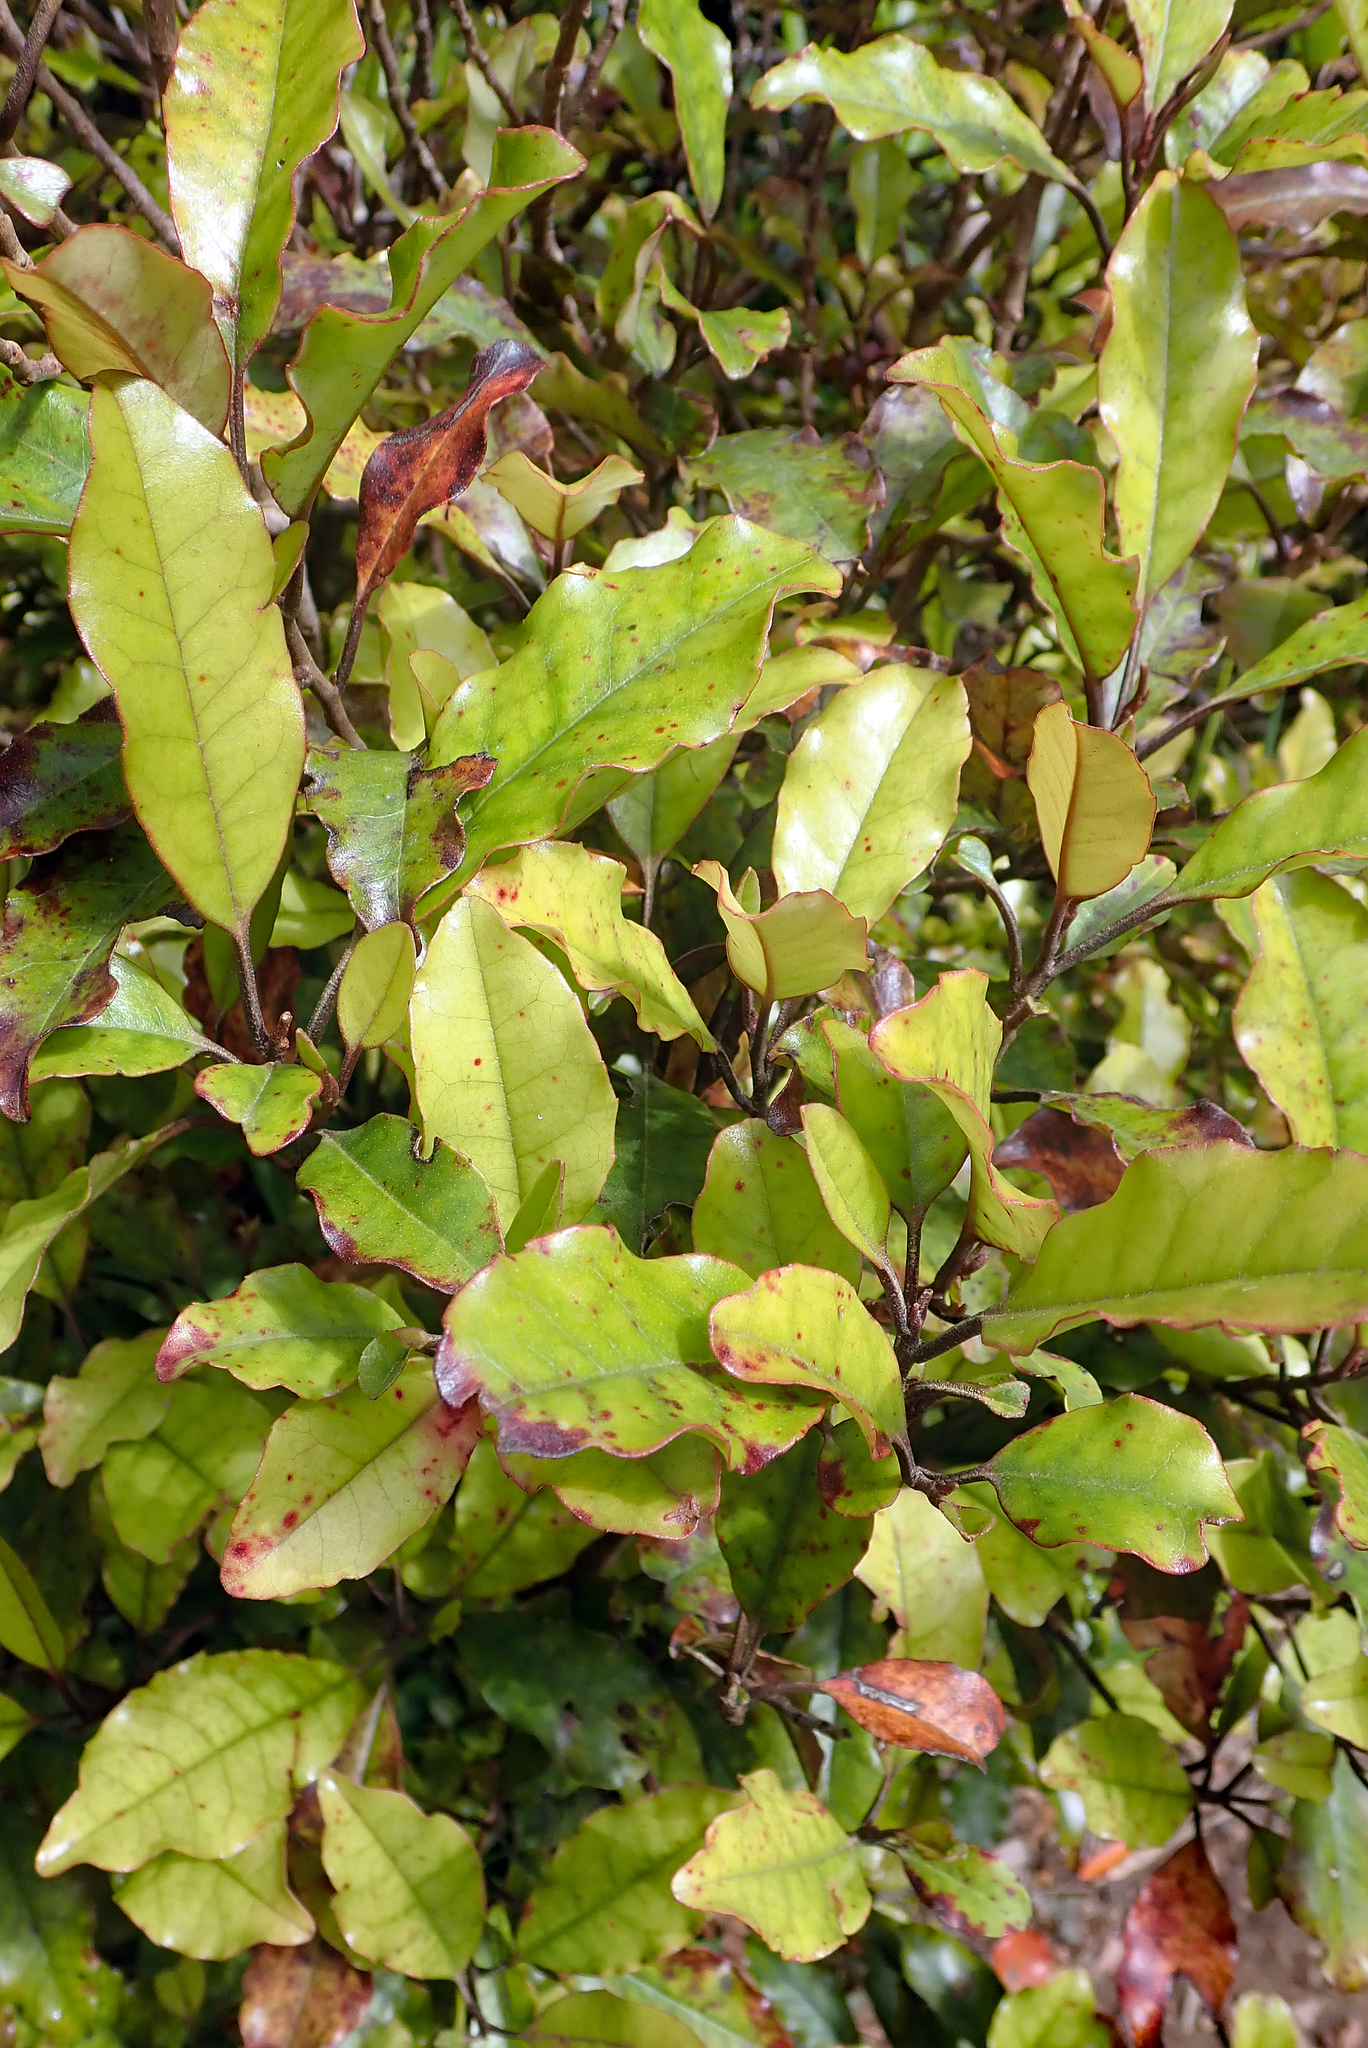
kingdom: Plantae
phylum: Tracheophyta
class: Magnoliopsida
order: Paracryphiales
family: Paracryphiaceae
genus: Quintinia
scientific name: Quintinia serrata
